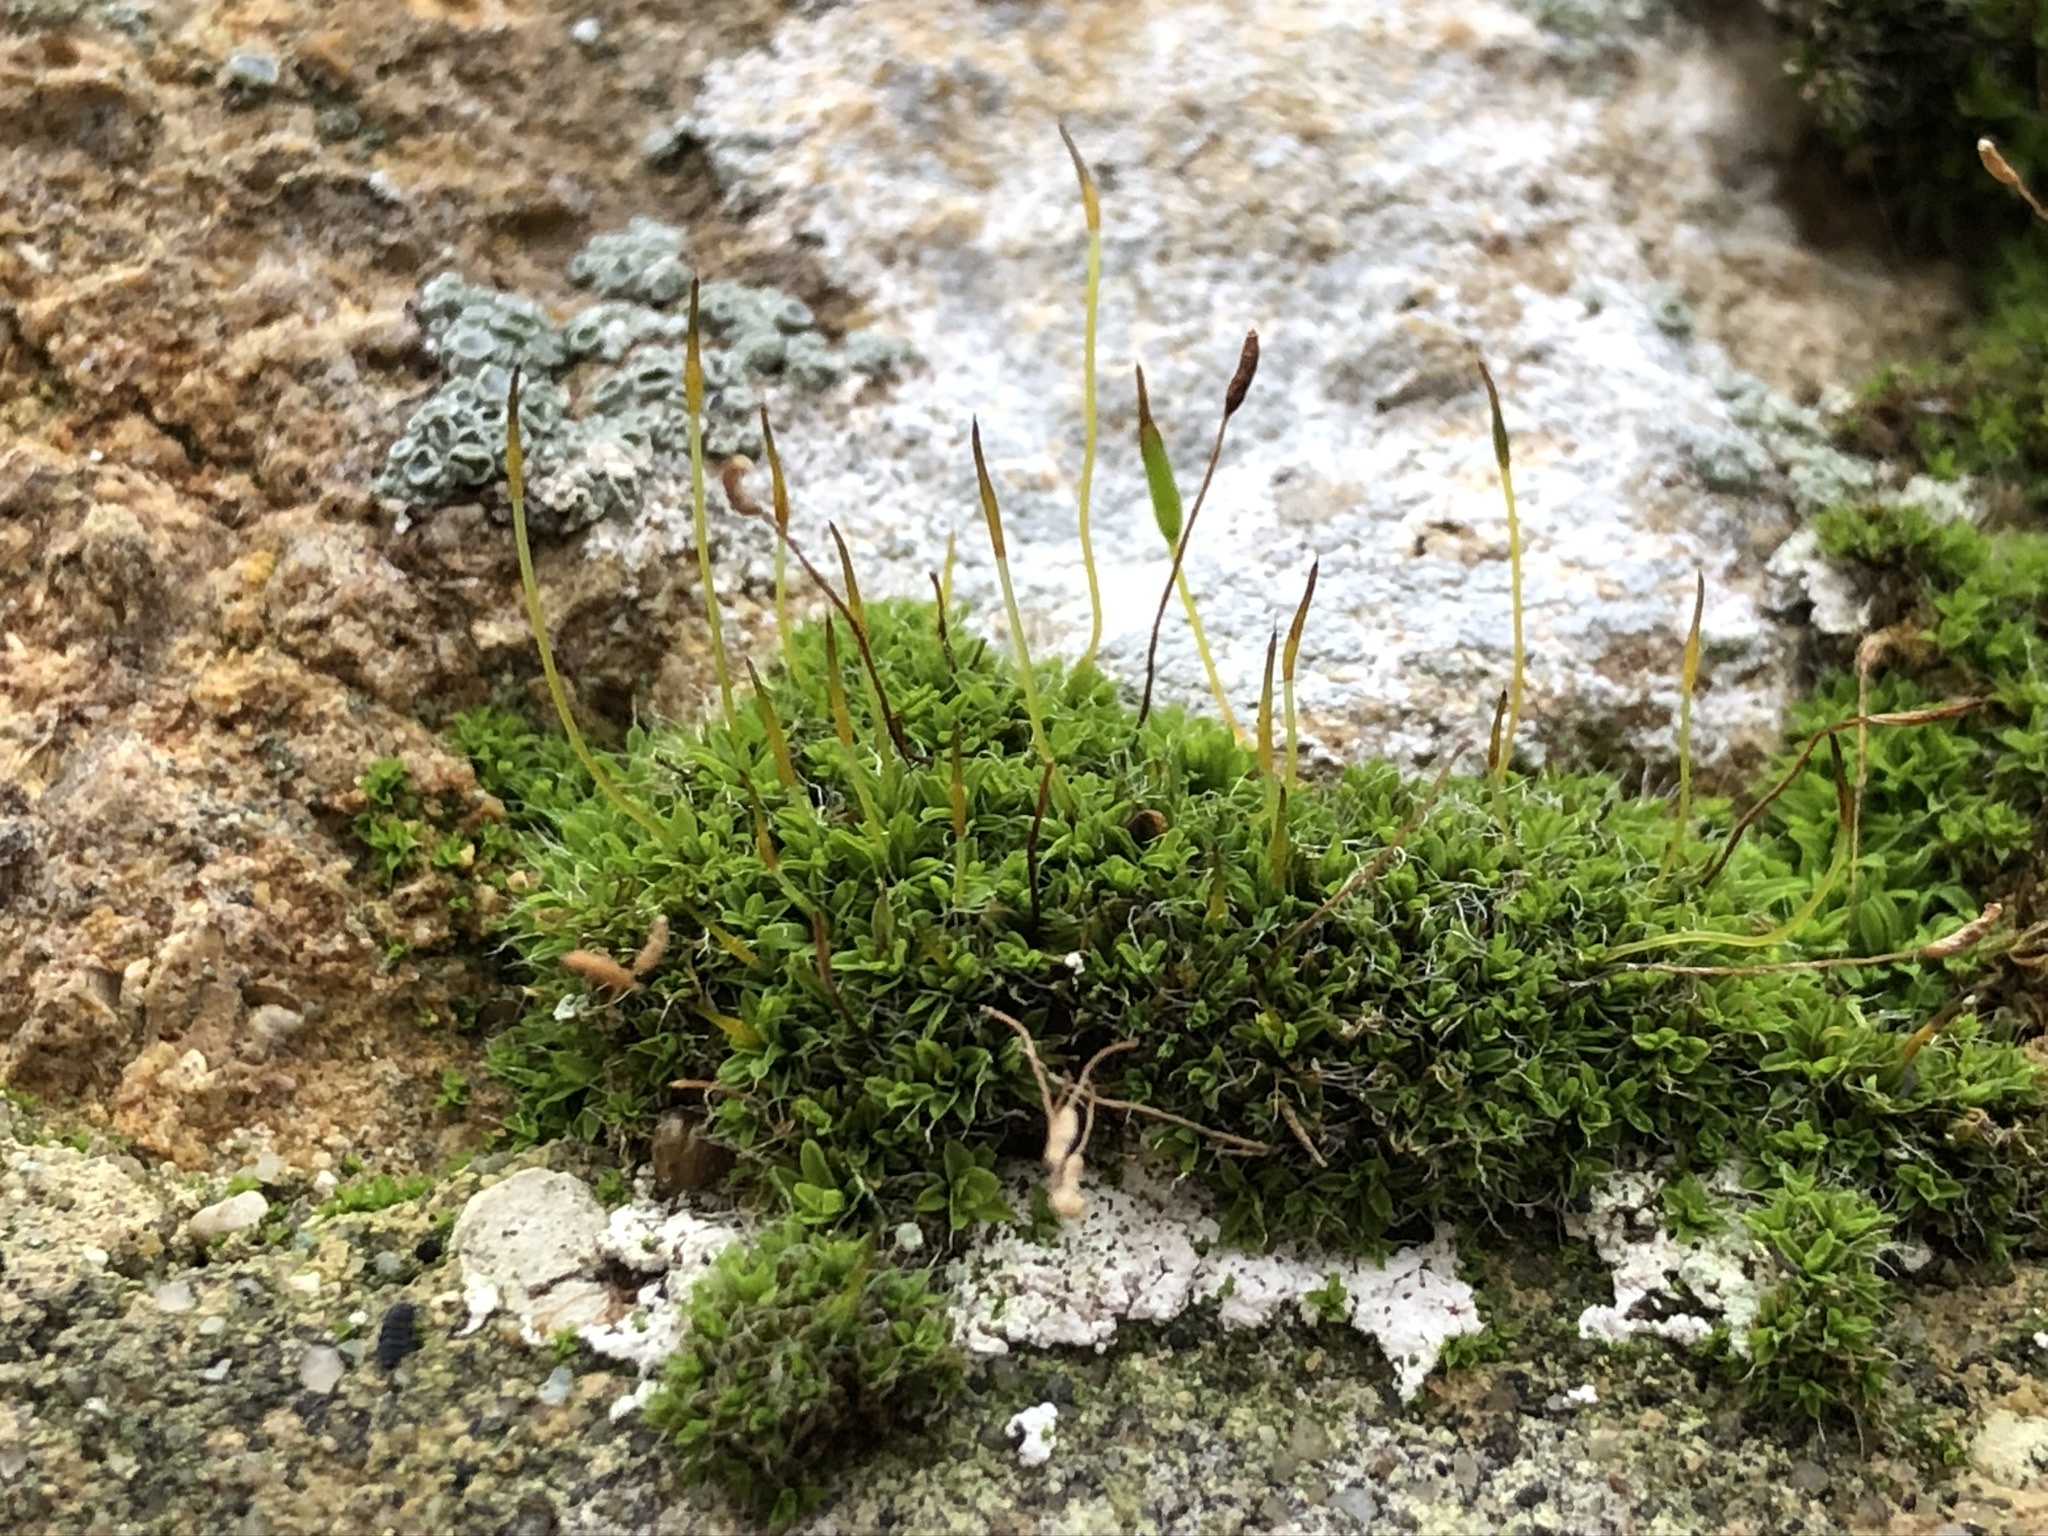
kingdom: Plantae
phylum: Bryophyta
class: Bryopsida
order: Pottiales
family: Pottiaceae
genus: Tortula
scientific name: Tortula muralis
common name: Wall screw-moss
